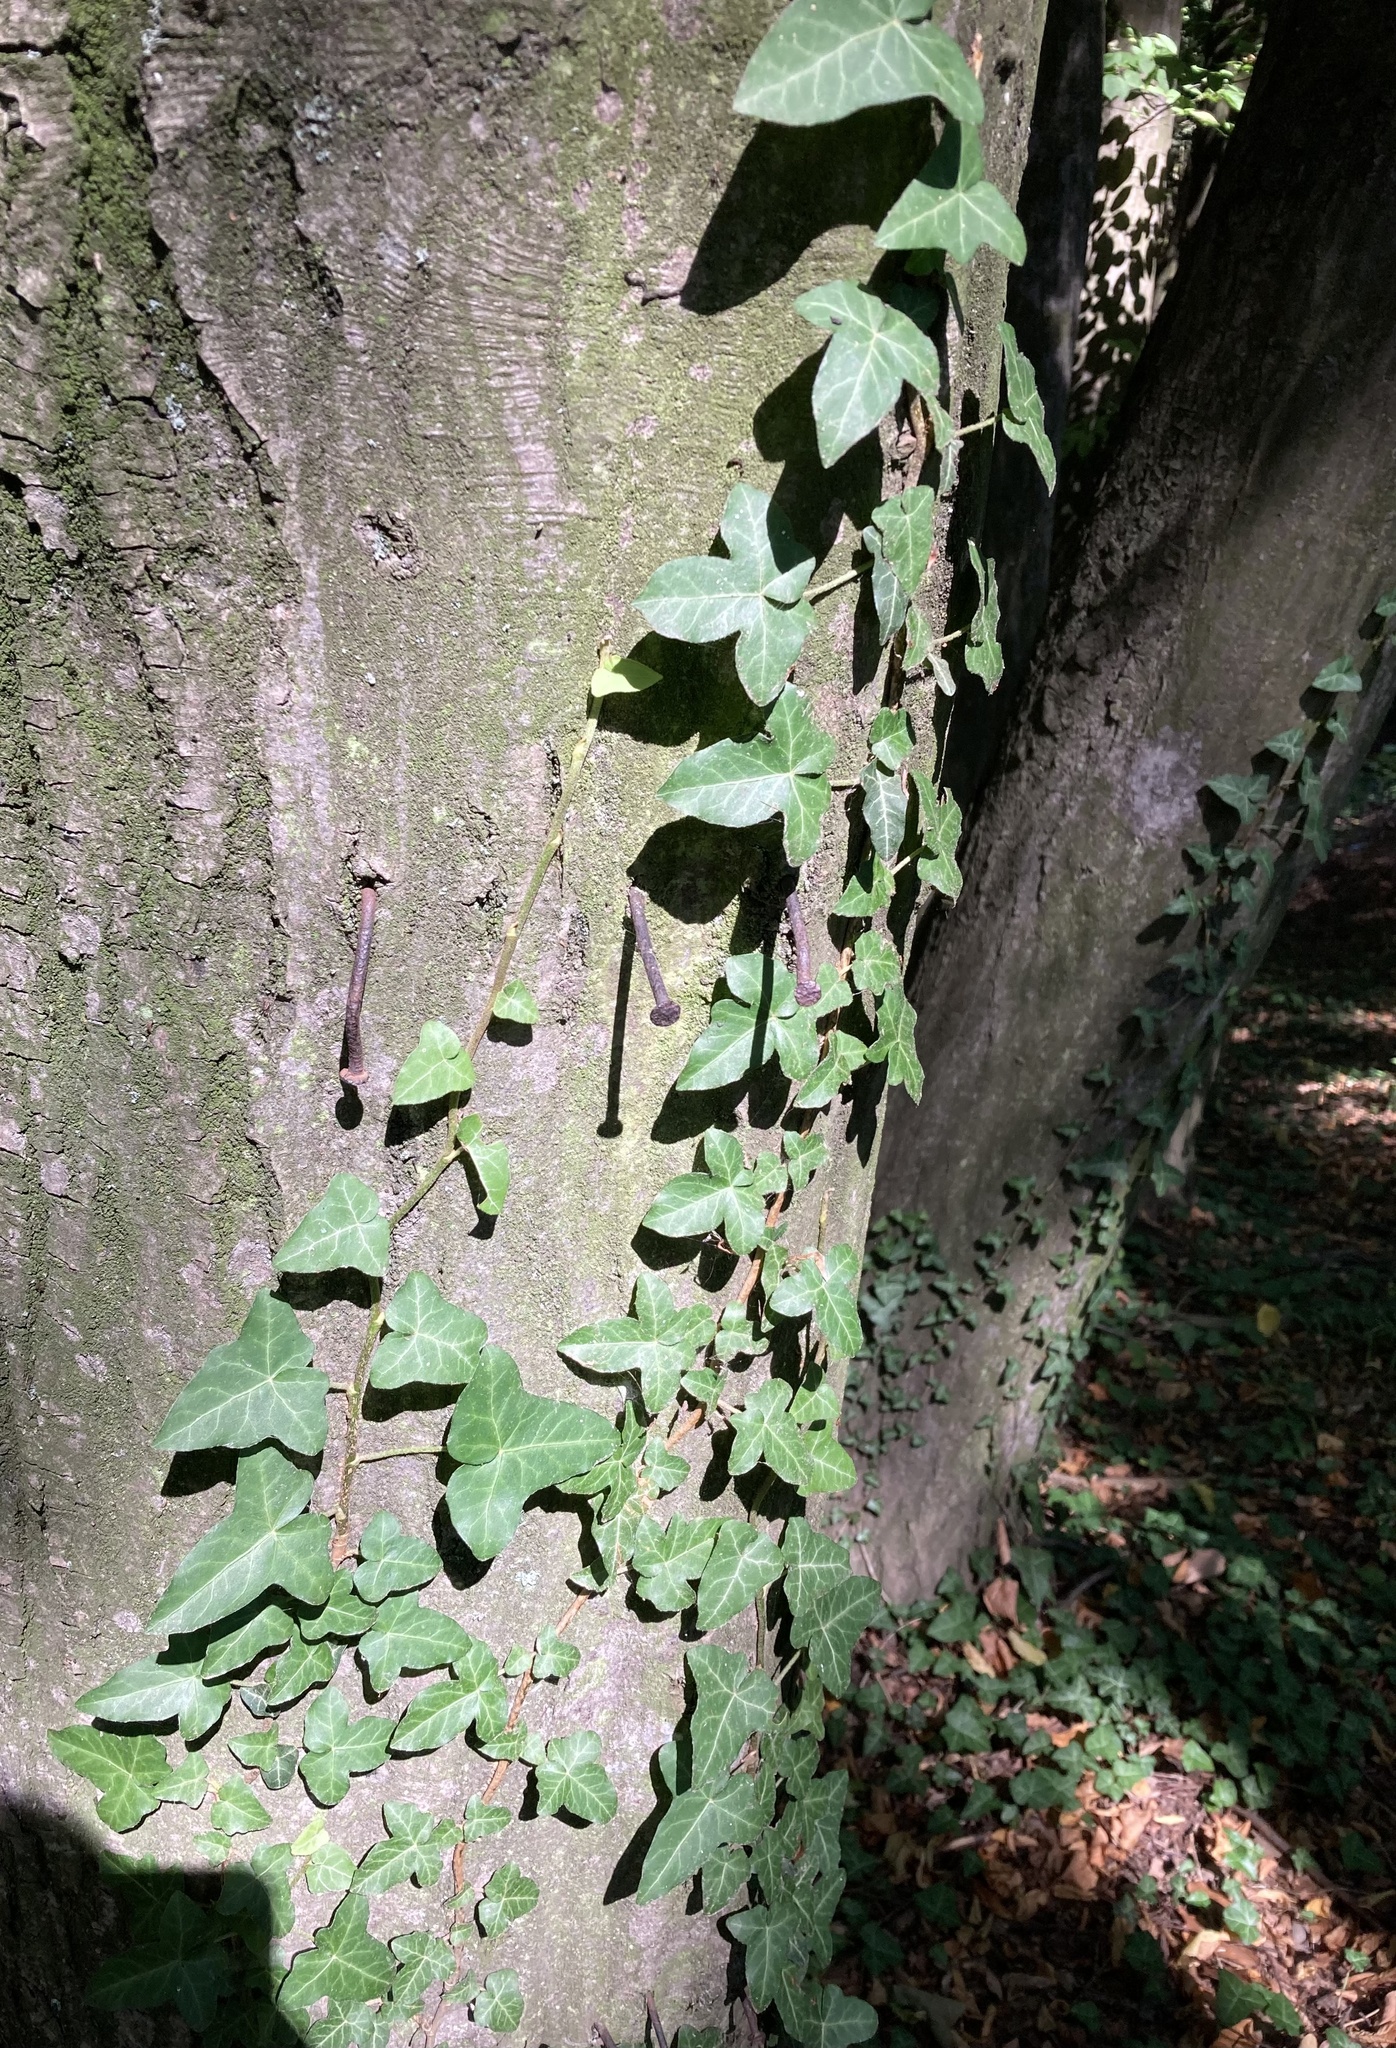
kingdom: Plantae
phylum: Tracheophyta
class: Magnoliopsida
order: Apiales
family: Araliaceae
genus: Hedera
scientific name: Hedera helix
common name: Ivy
